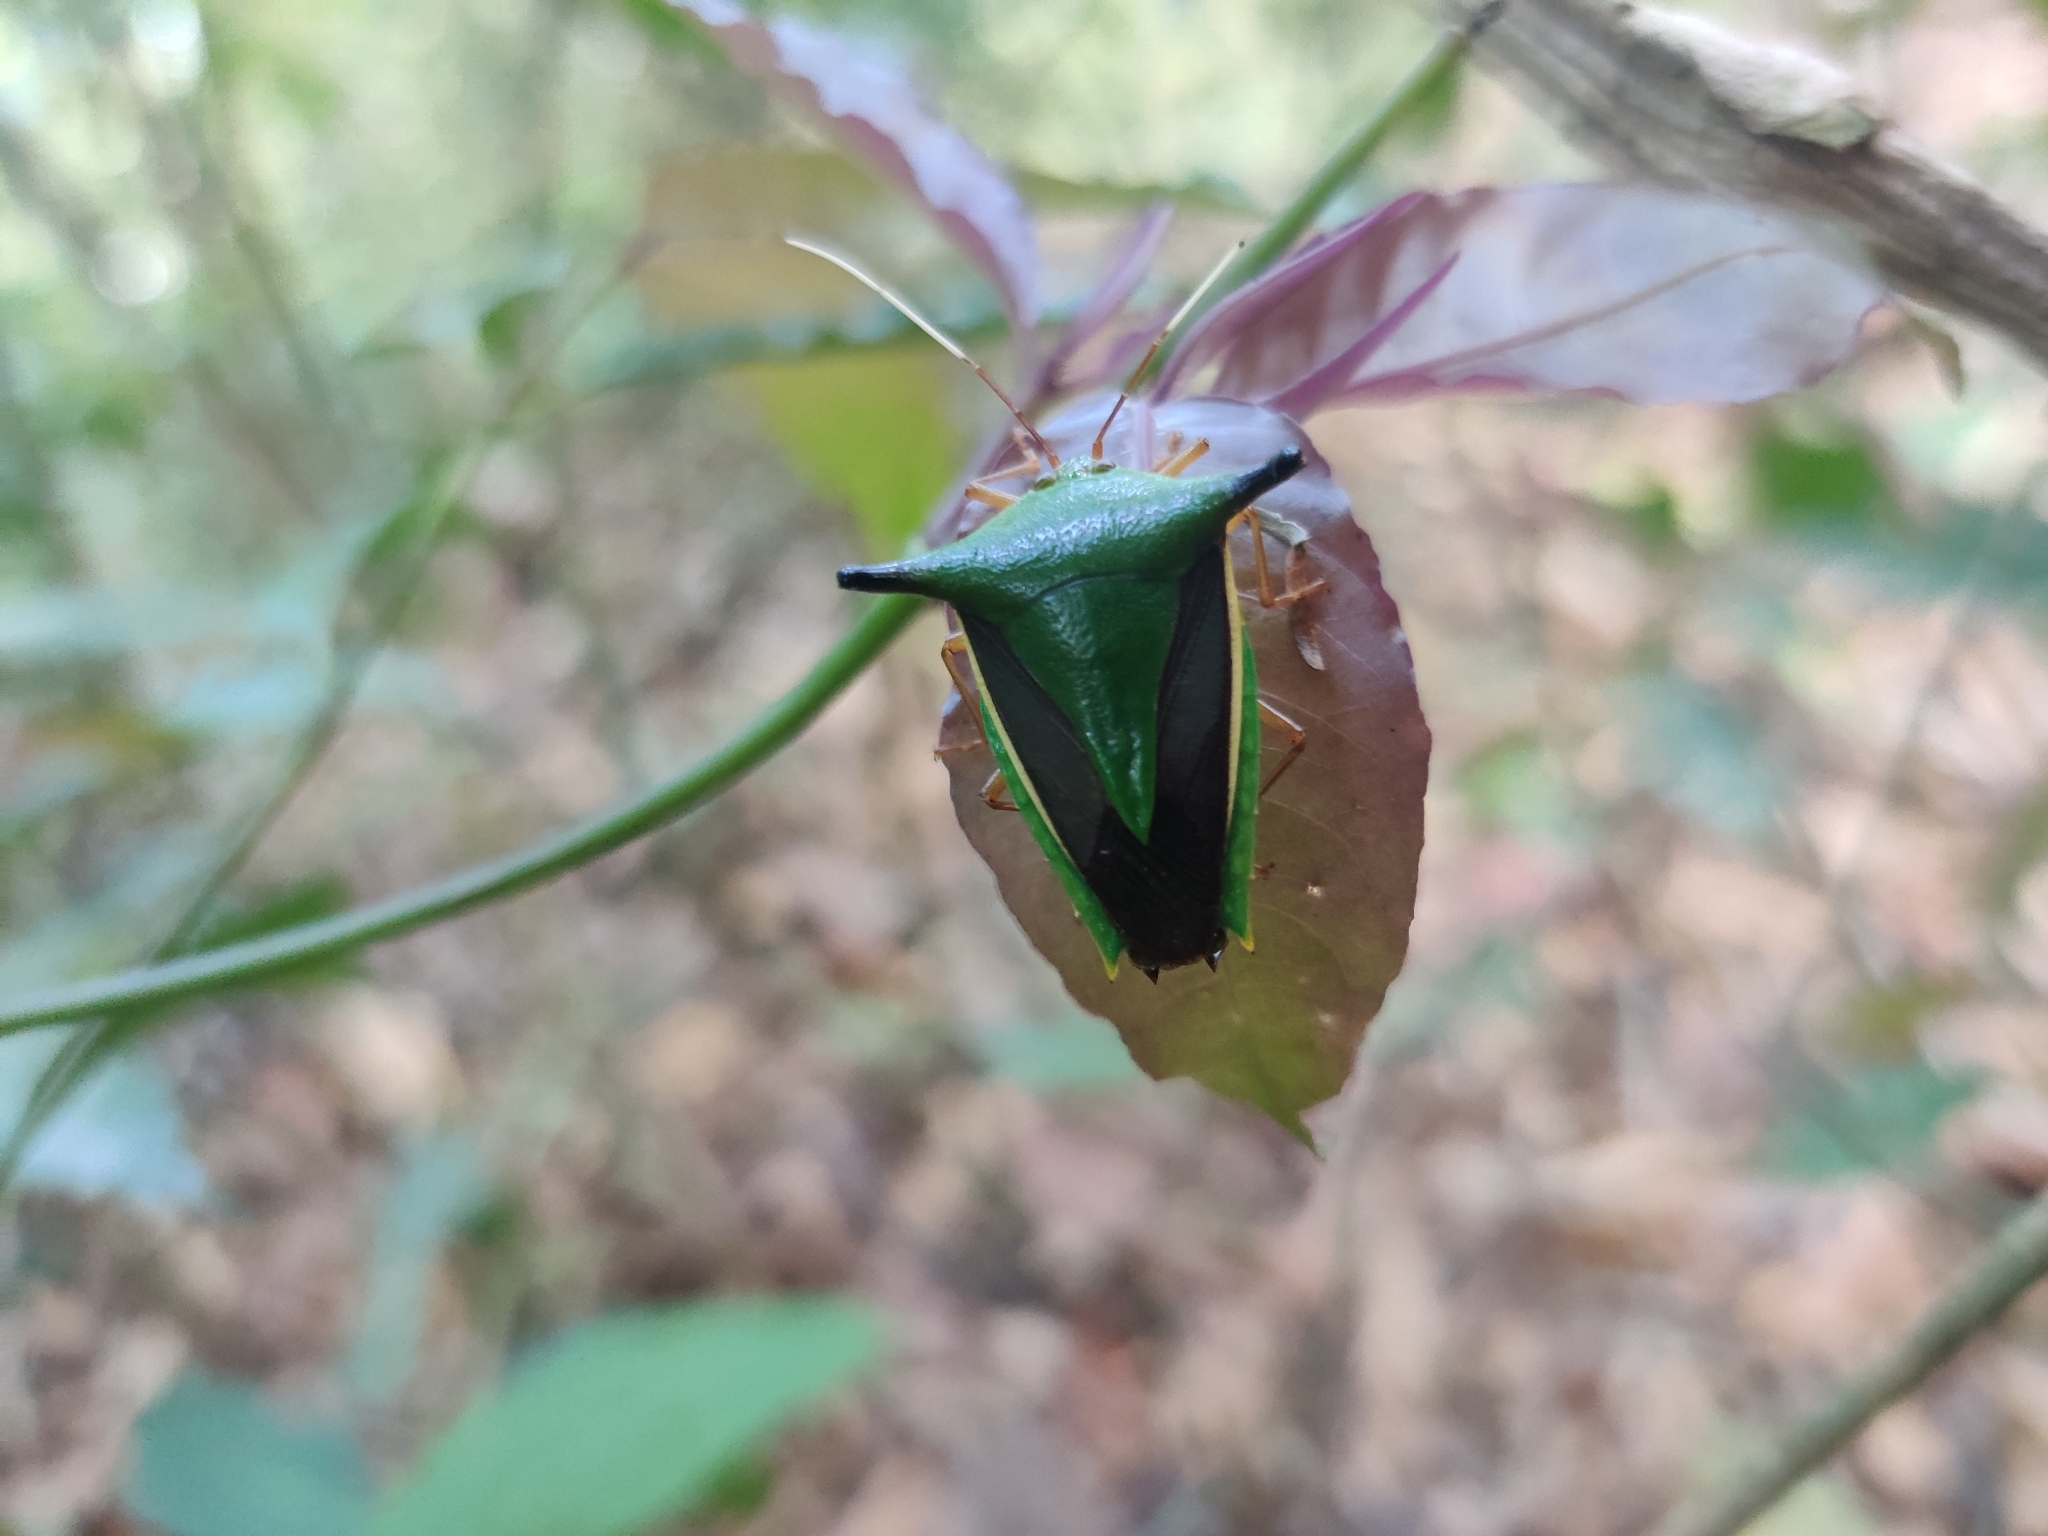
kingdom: Animalia
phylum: Arthropoda
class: Insecta
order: Hemiptera
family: Pentatomidae
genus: Edessa
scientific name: Edessa
